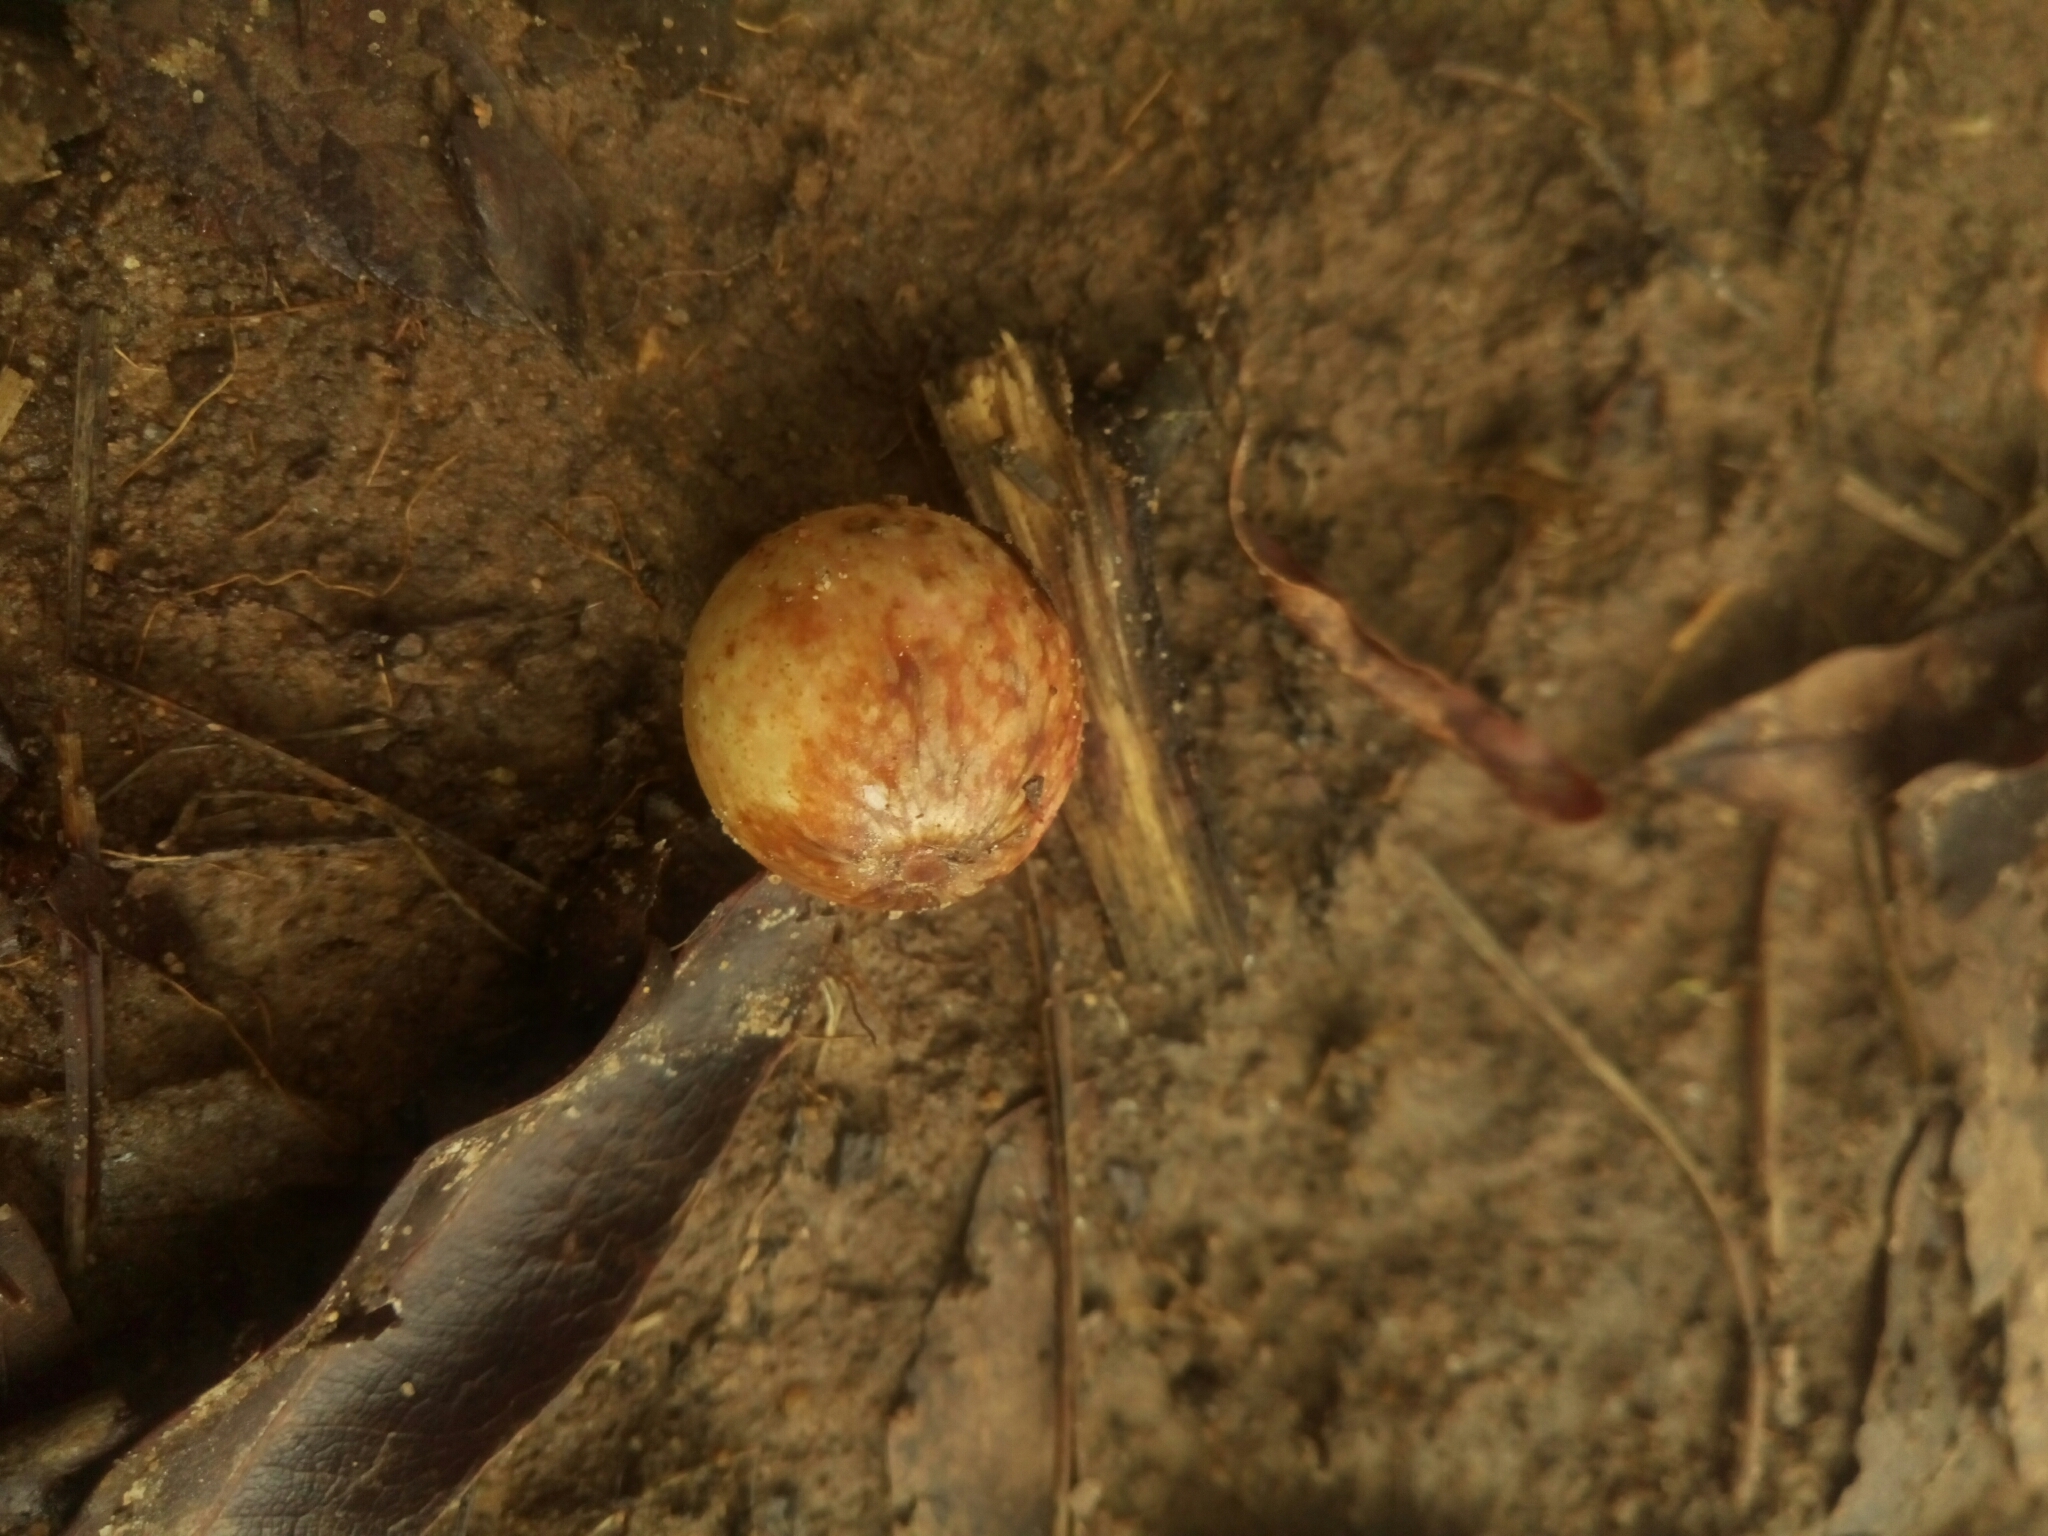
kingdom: Animalia
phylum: Arthropoda
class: Insecta
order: Hymenoptera
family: Cynipidae
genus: Amphibolips
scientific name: Amphibolips
